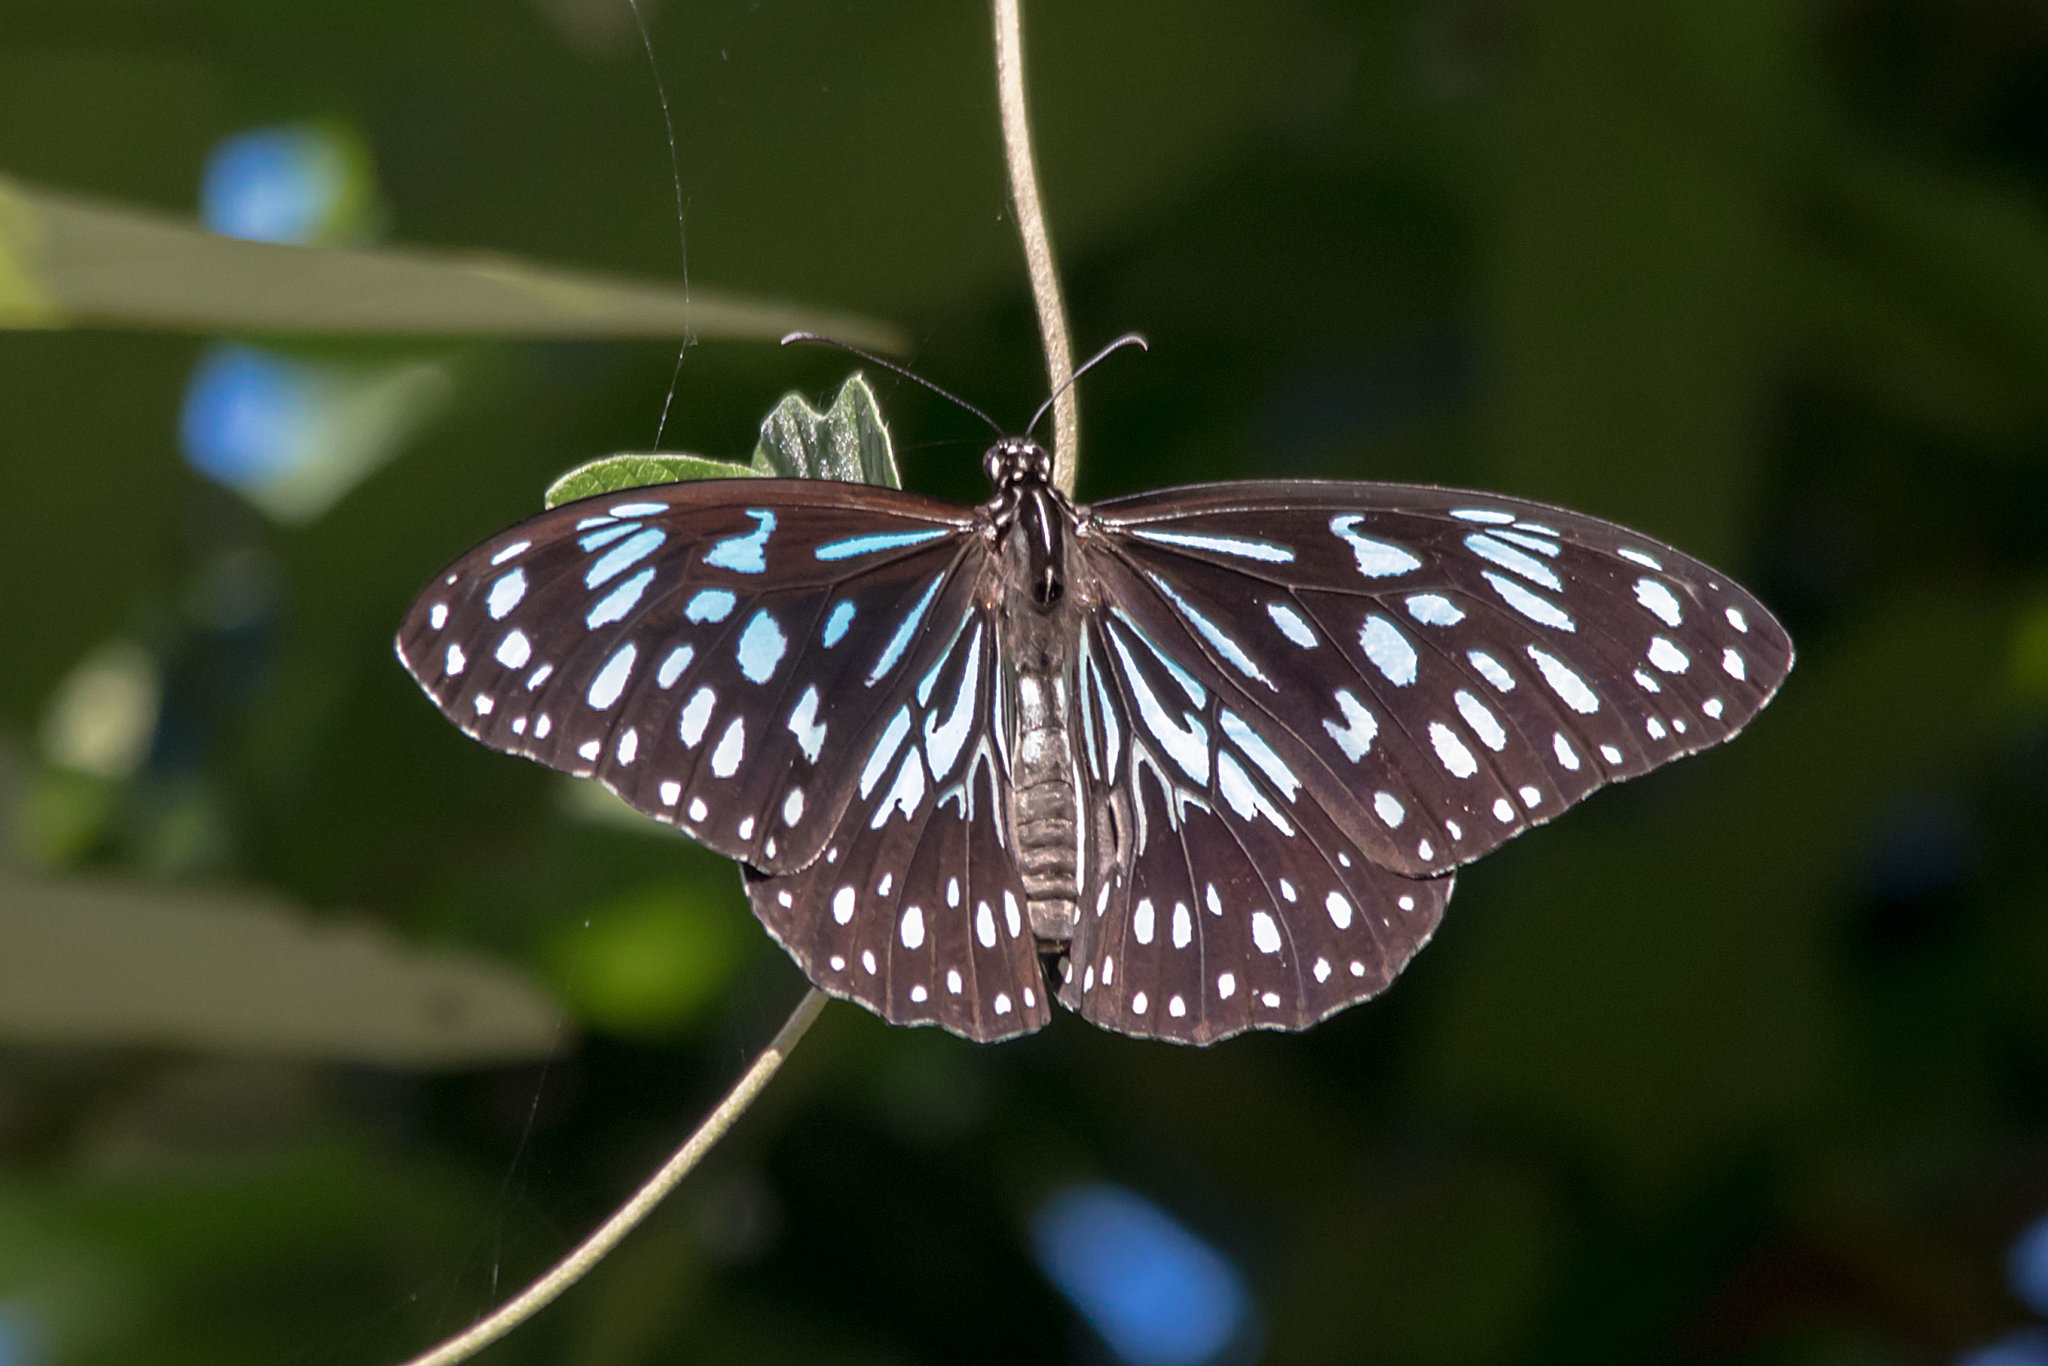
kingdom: Animalia
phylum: Arthropoda
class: Insecta
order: Lepidoptera
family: Nymphalidae
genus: Tirumala
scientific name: Tirumala hamata
